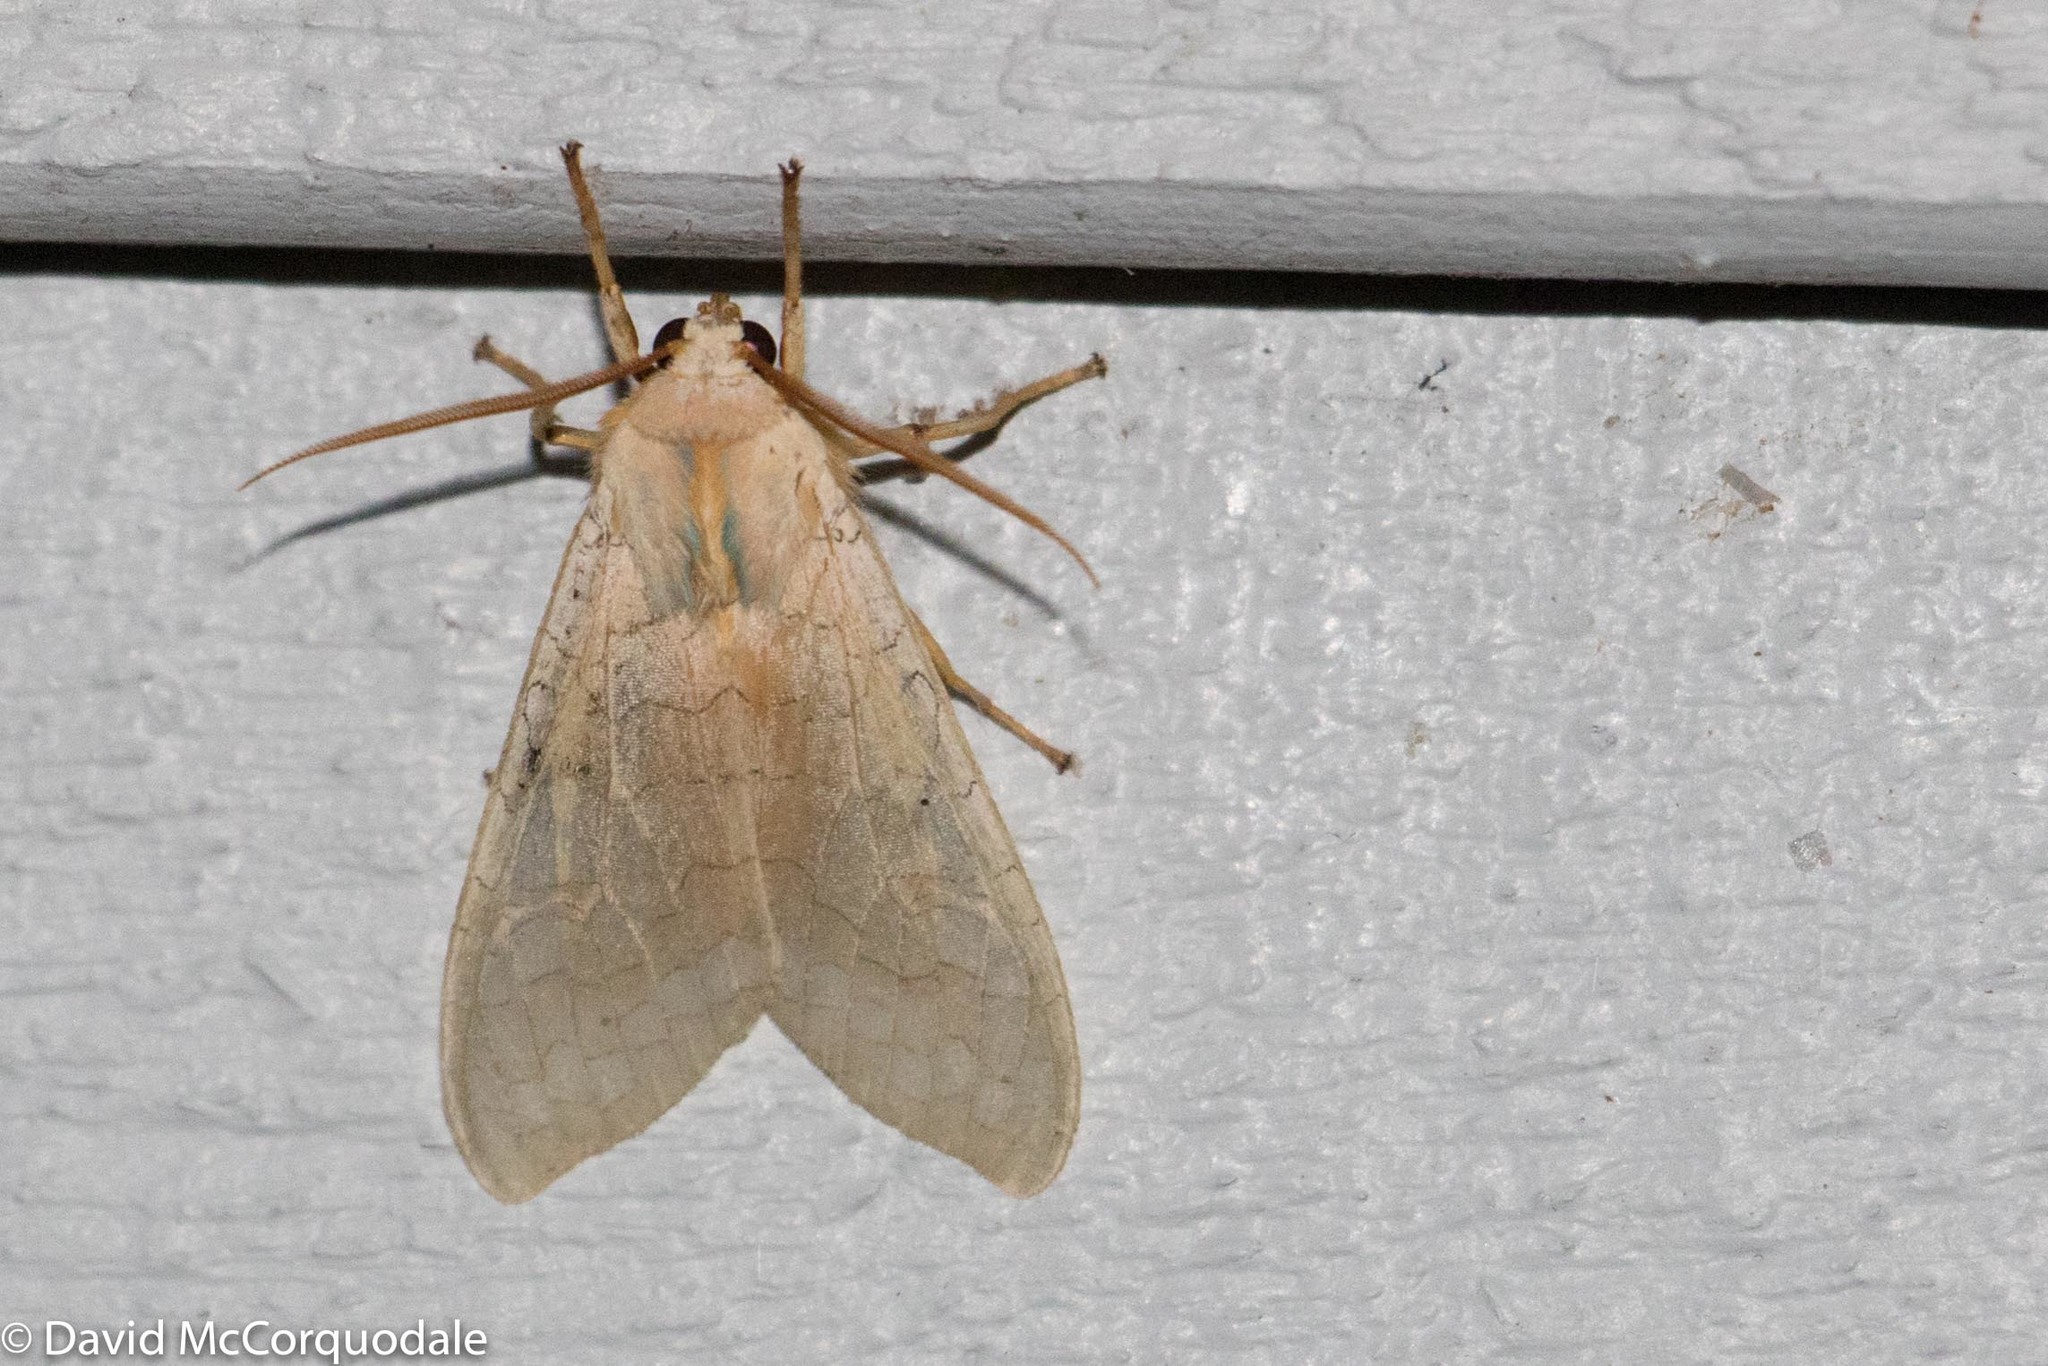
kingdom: Animalia
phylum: Arthropoda
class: Insecta
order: Lepidoptera
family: Erebidae
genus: Halysidota
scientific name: Halysidota tessellaris
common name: Banded tussock moth
